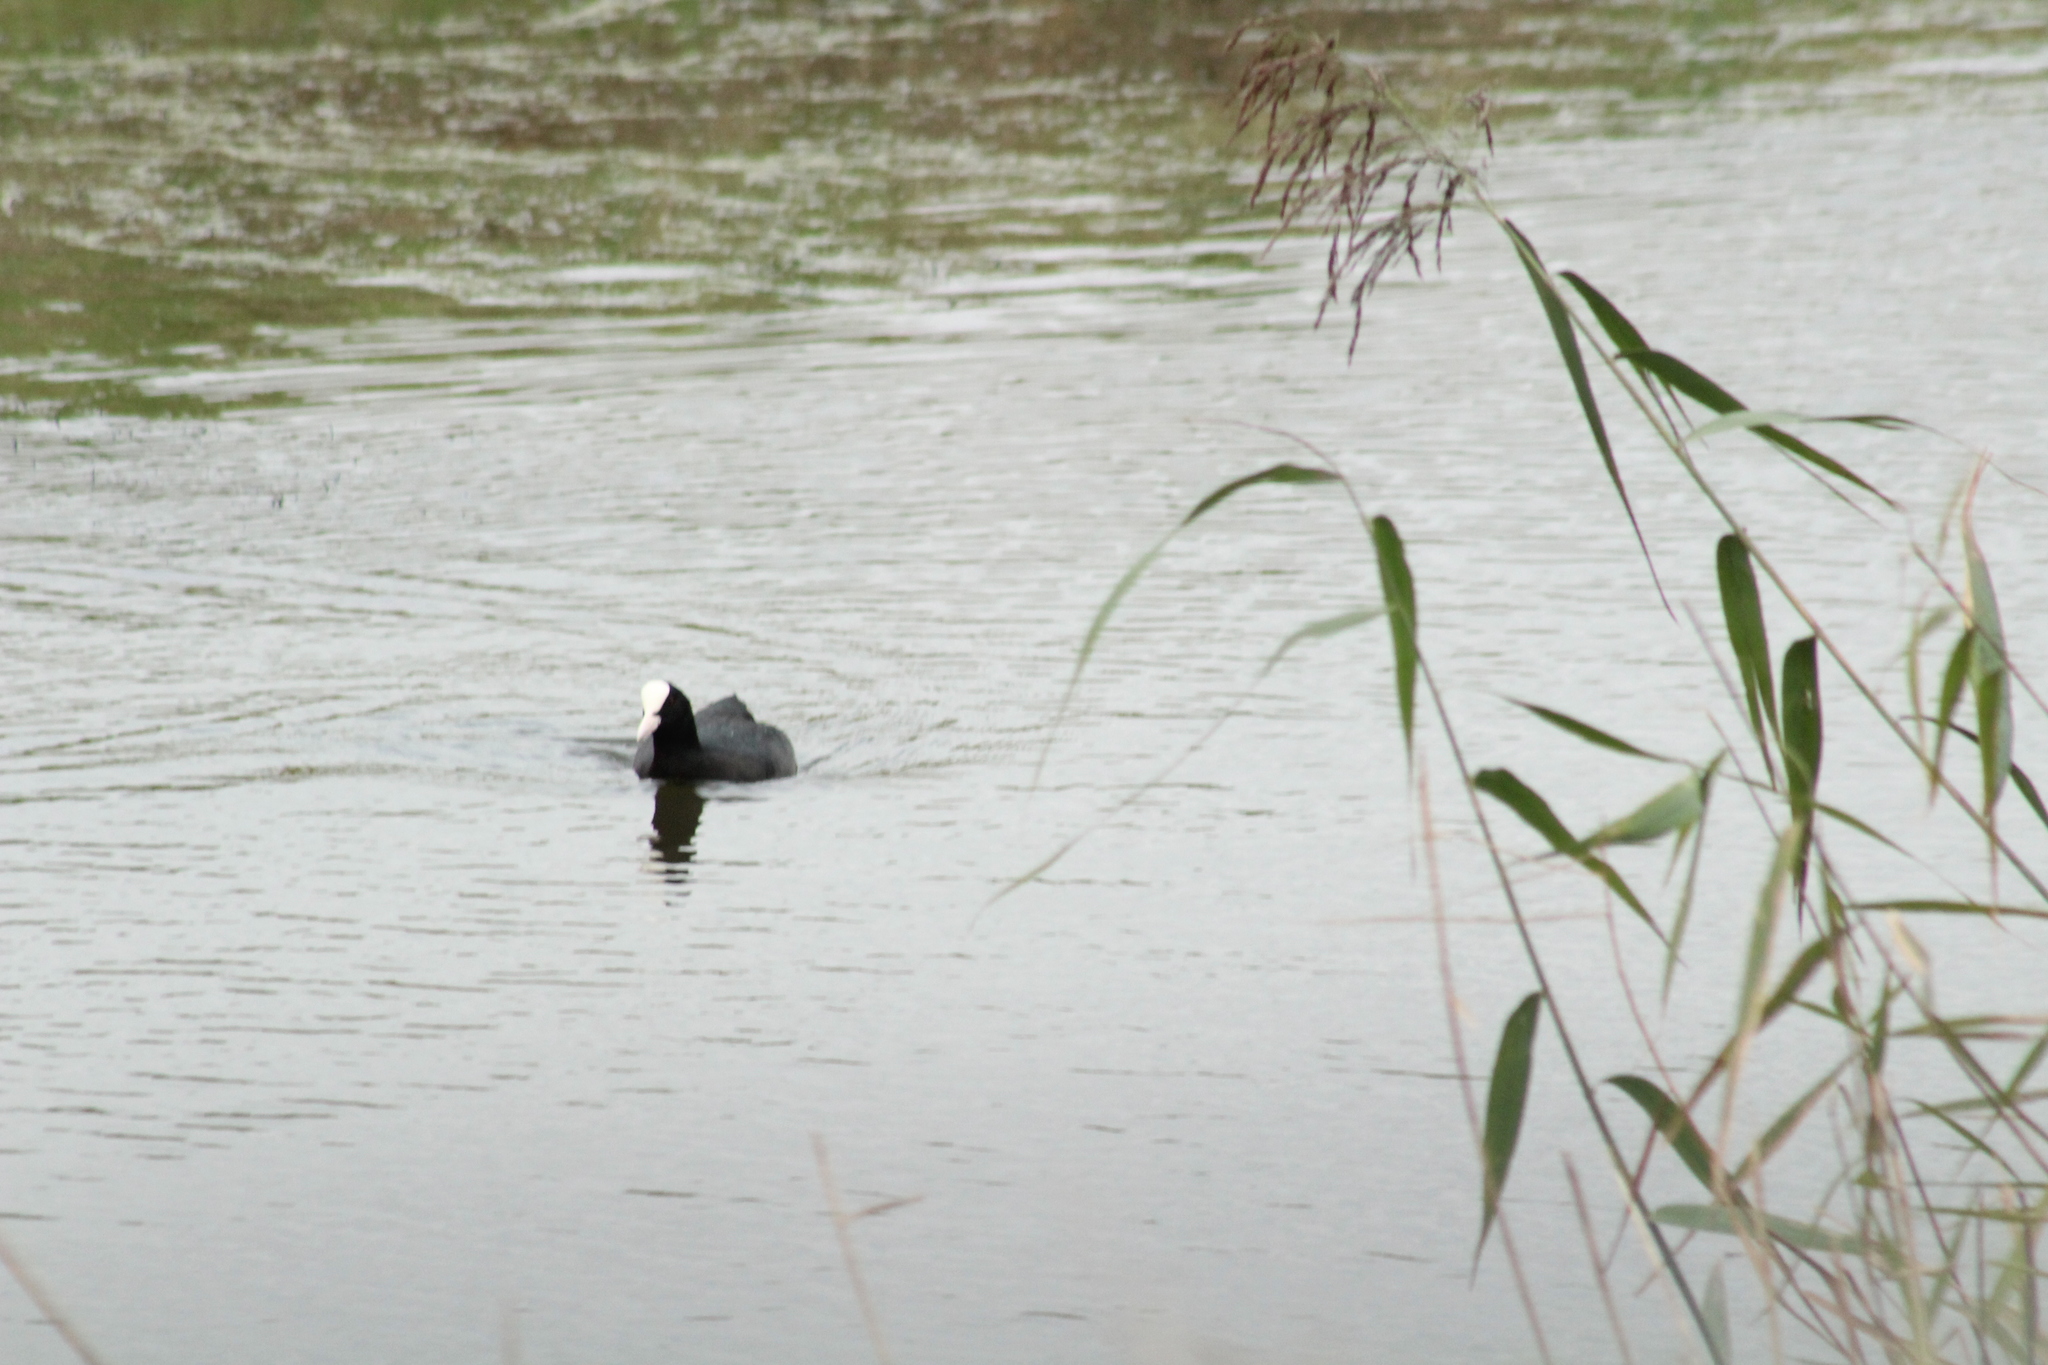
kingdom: Animalia
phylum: Chordata
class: Aves
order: Gruiformes
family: Rallidae
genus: Fulica
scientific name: Fulica atra
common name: Eurasian coot
